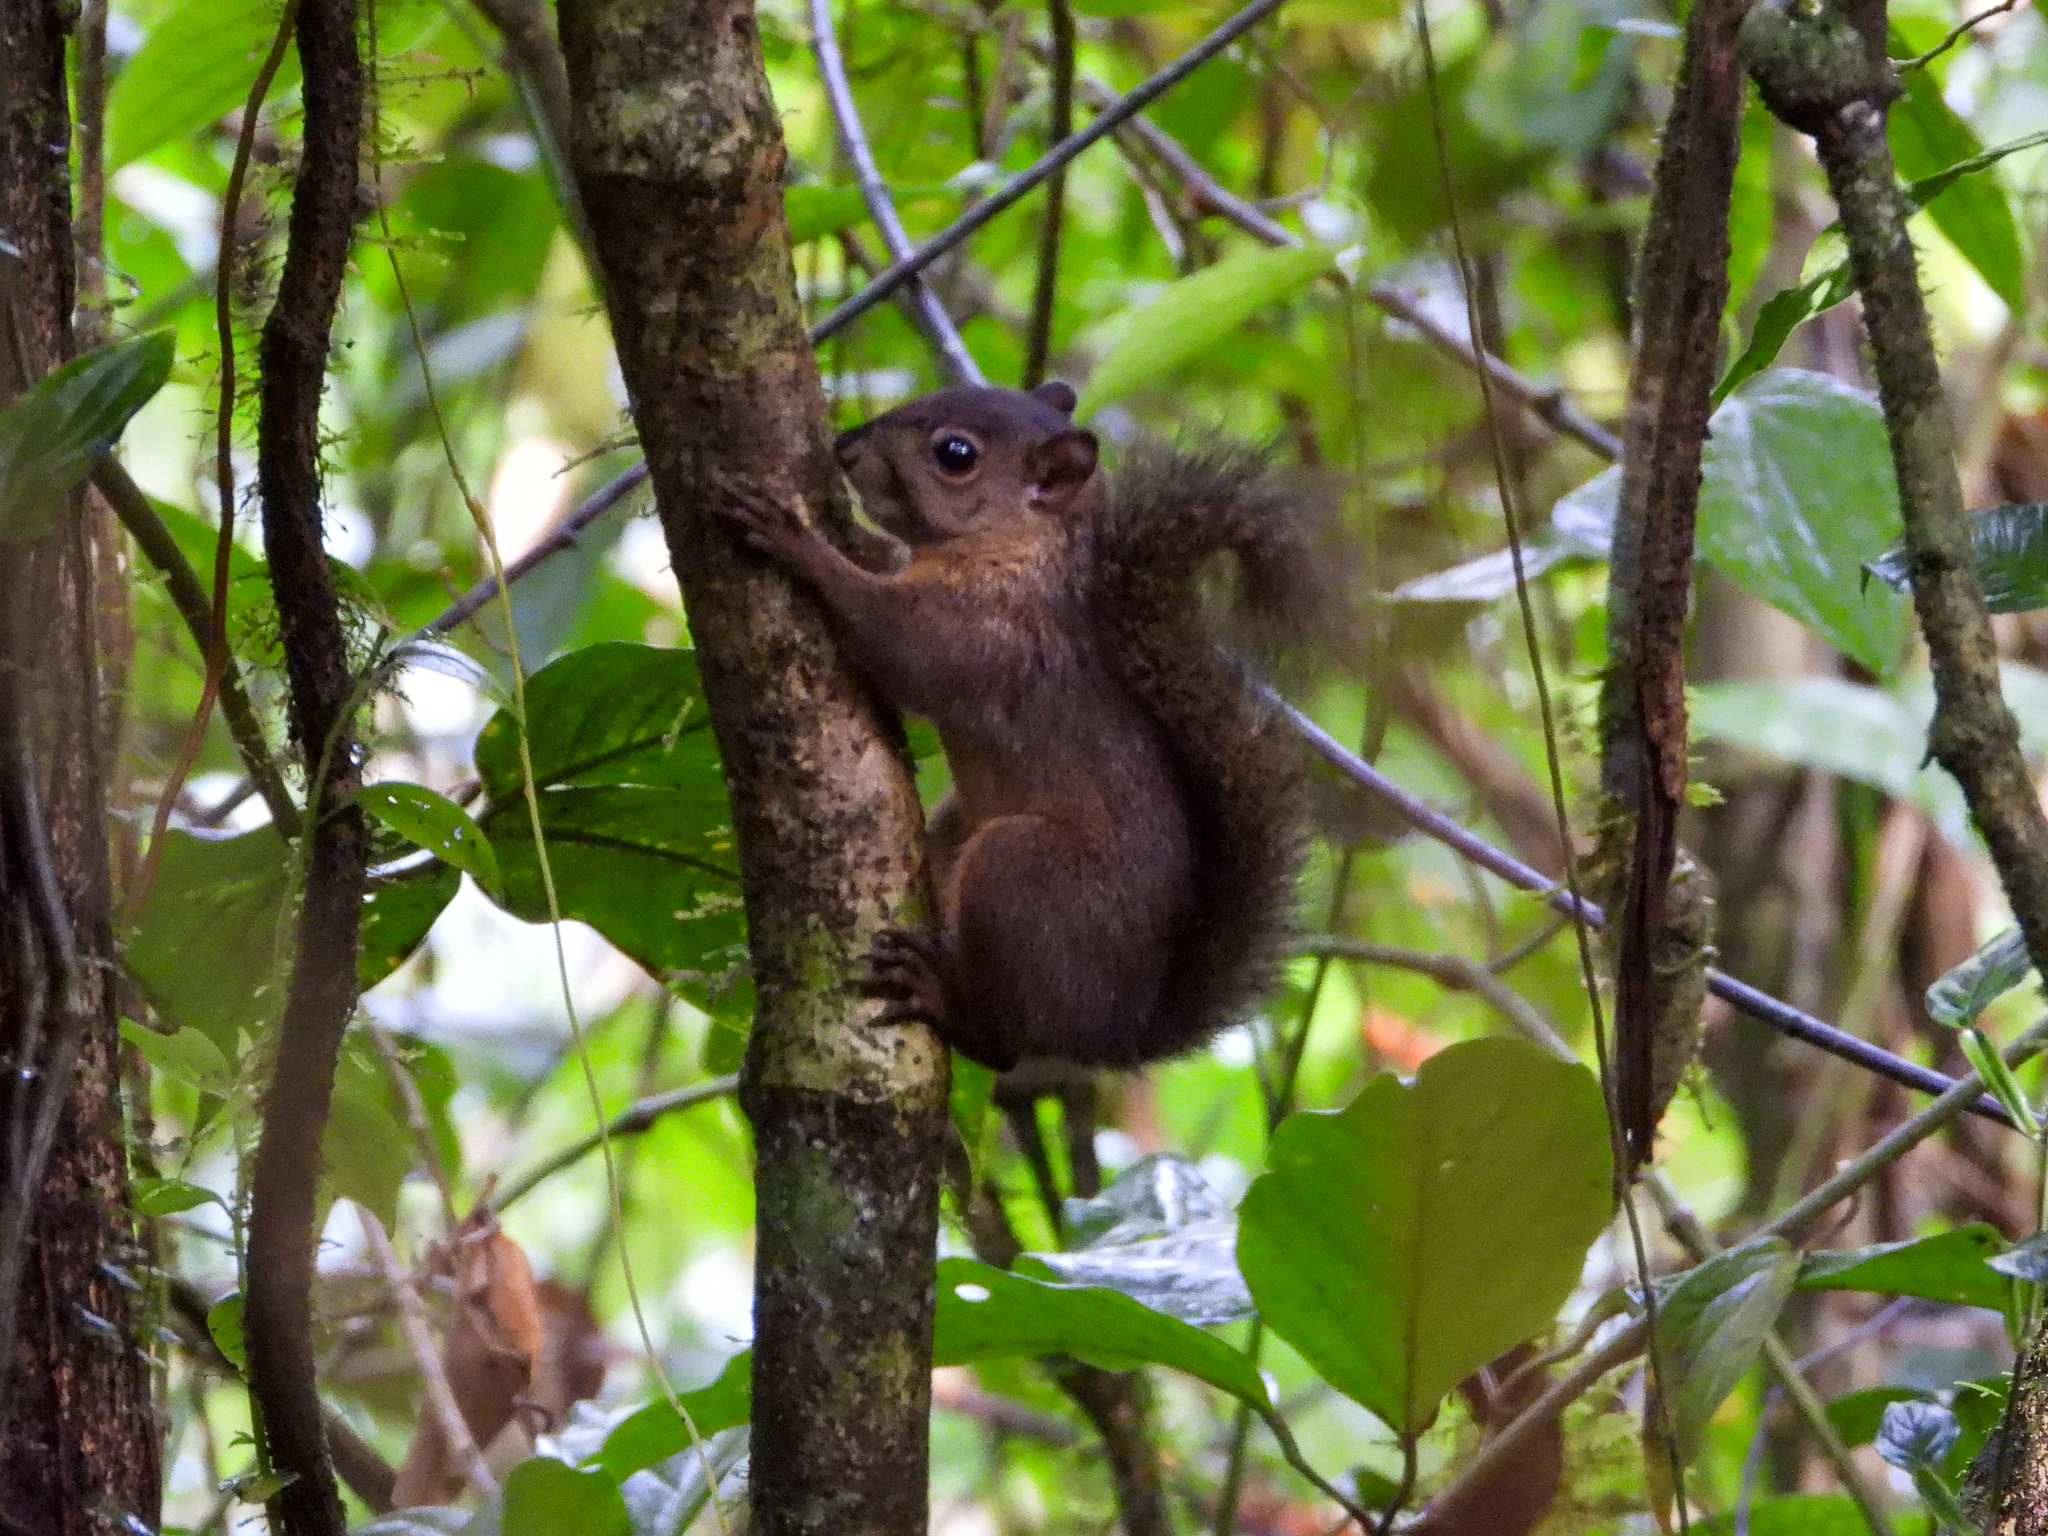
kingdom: Animalia
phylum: Chordata
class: Mammalia
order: Rodentia
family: Sciuridae
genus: Sciurus
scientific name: Sciurus granatensis
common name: Red-tailed squirrel
